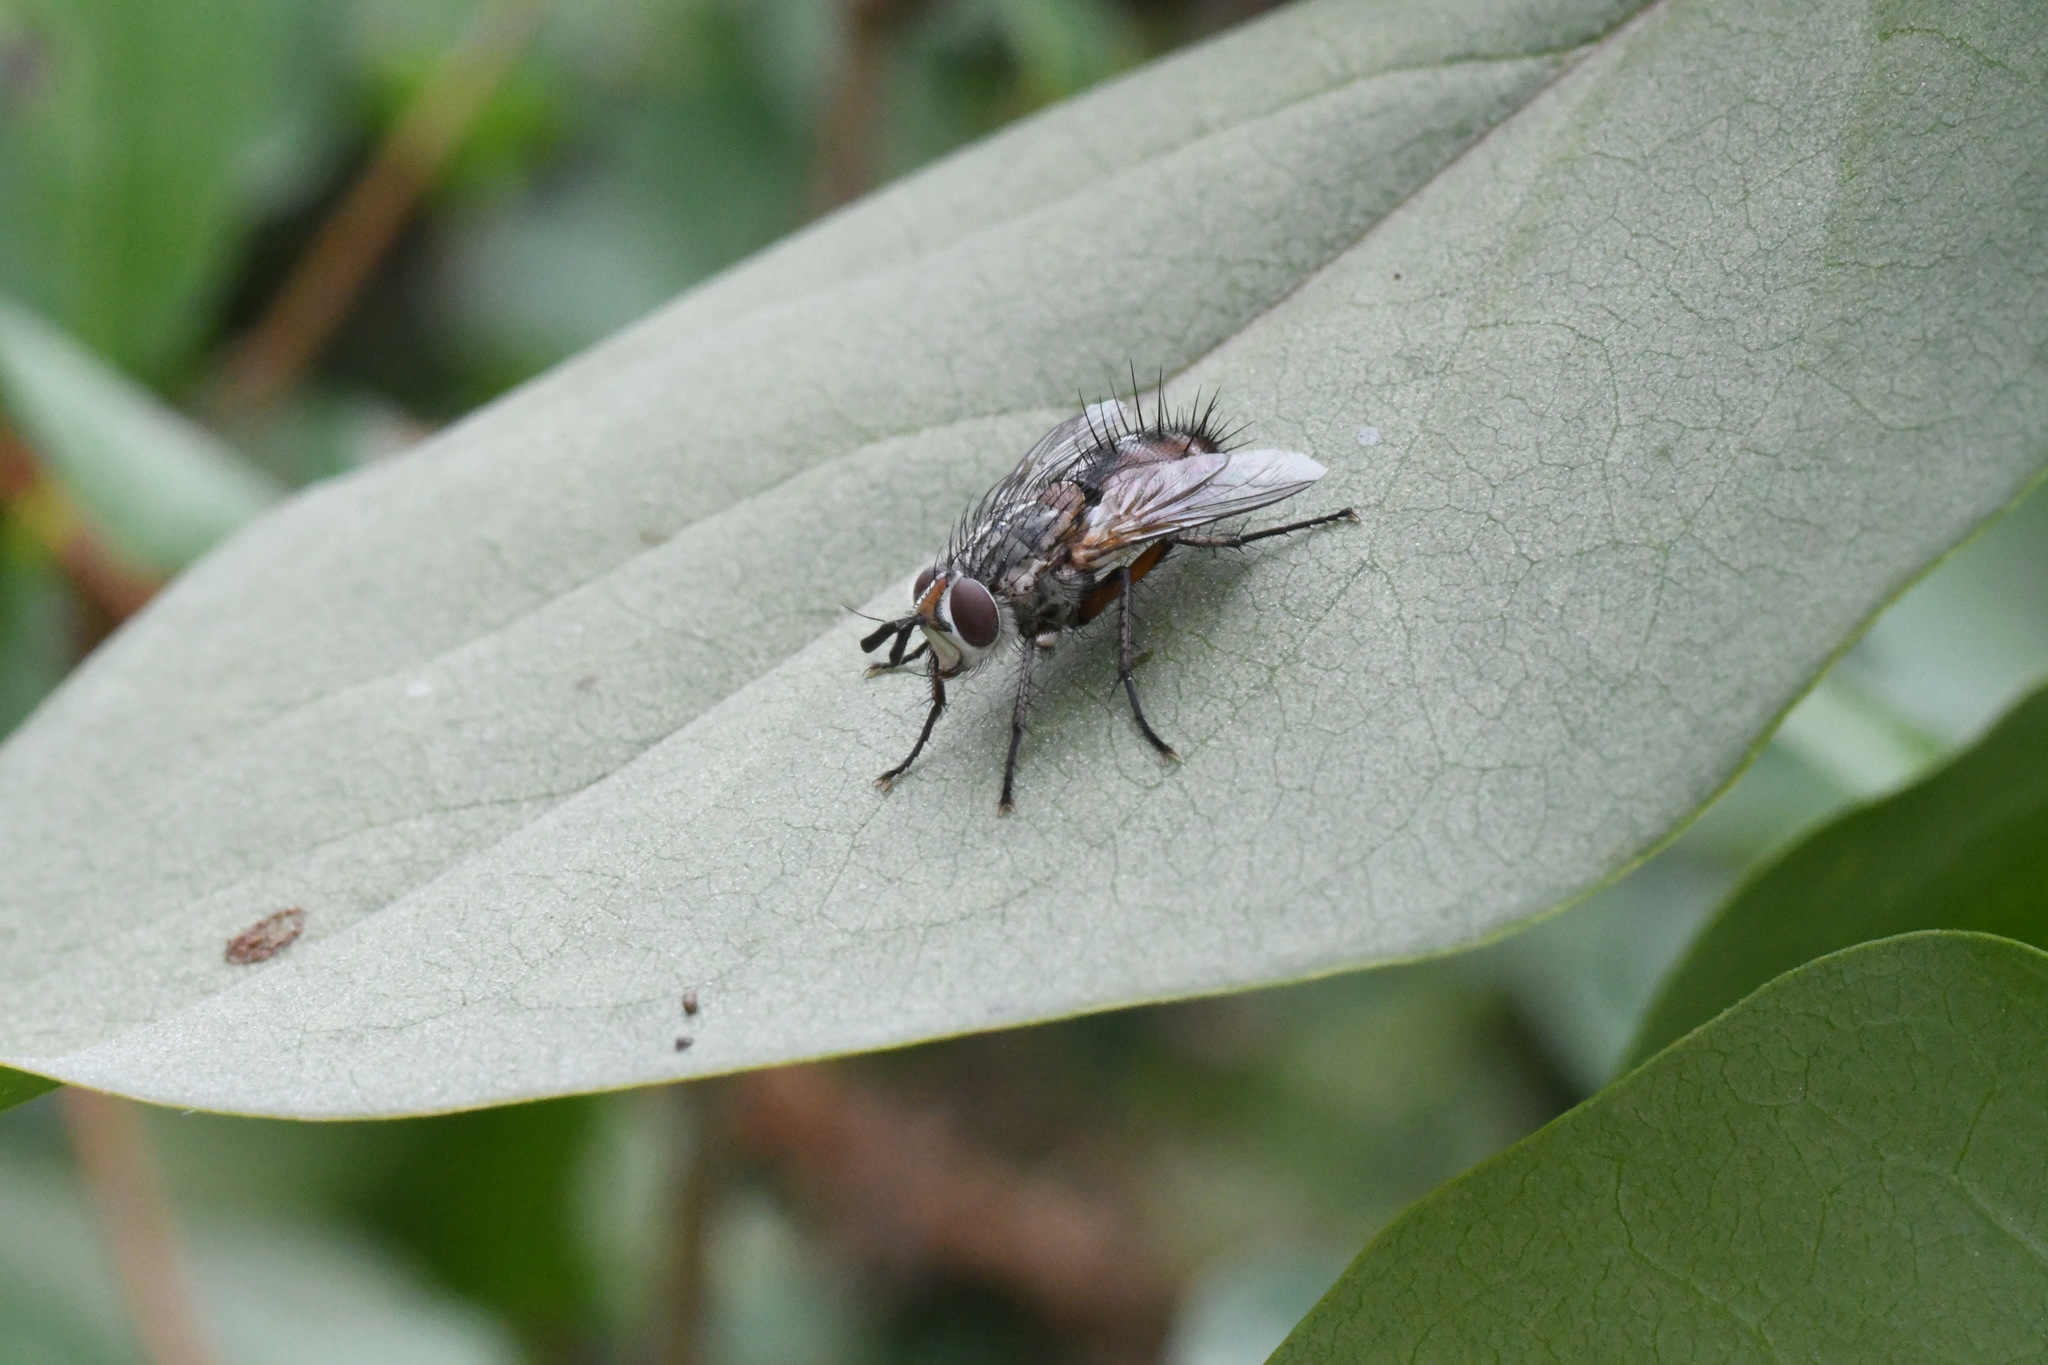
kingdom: Animalia
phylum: Arthropoda
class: Insecta
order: Diptera
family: Tachinidae
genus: Linnaemya
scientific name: Linnaemya vulpina
